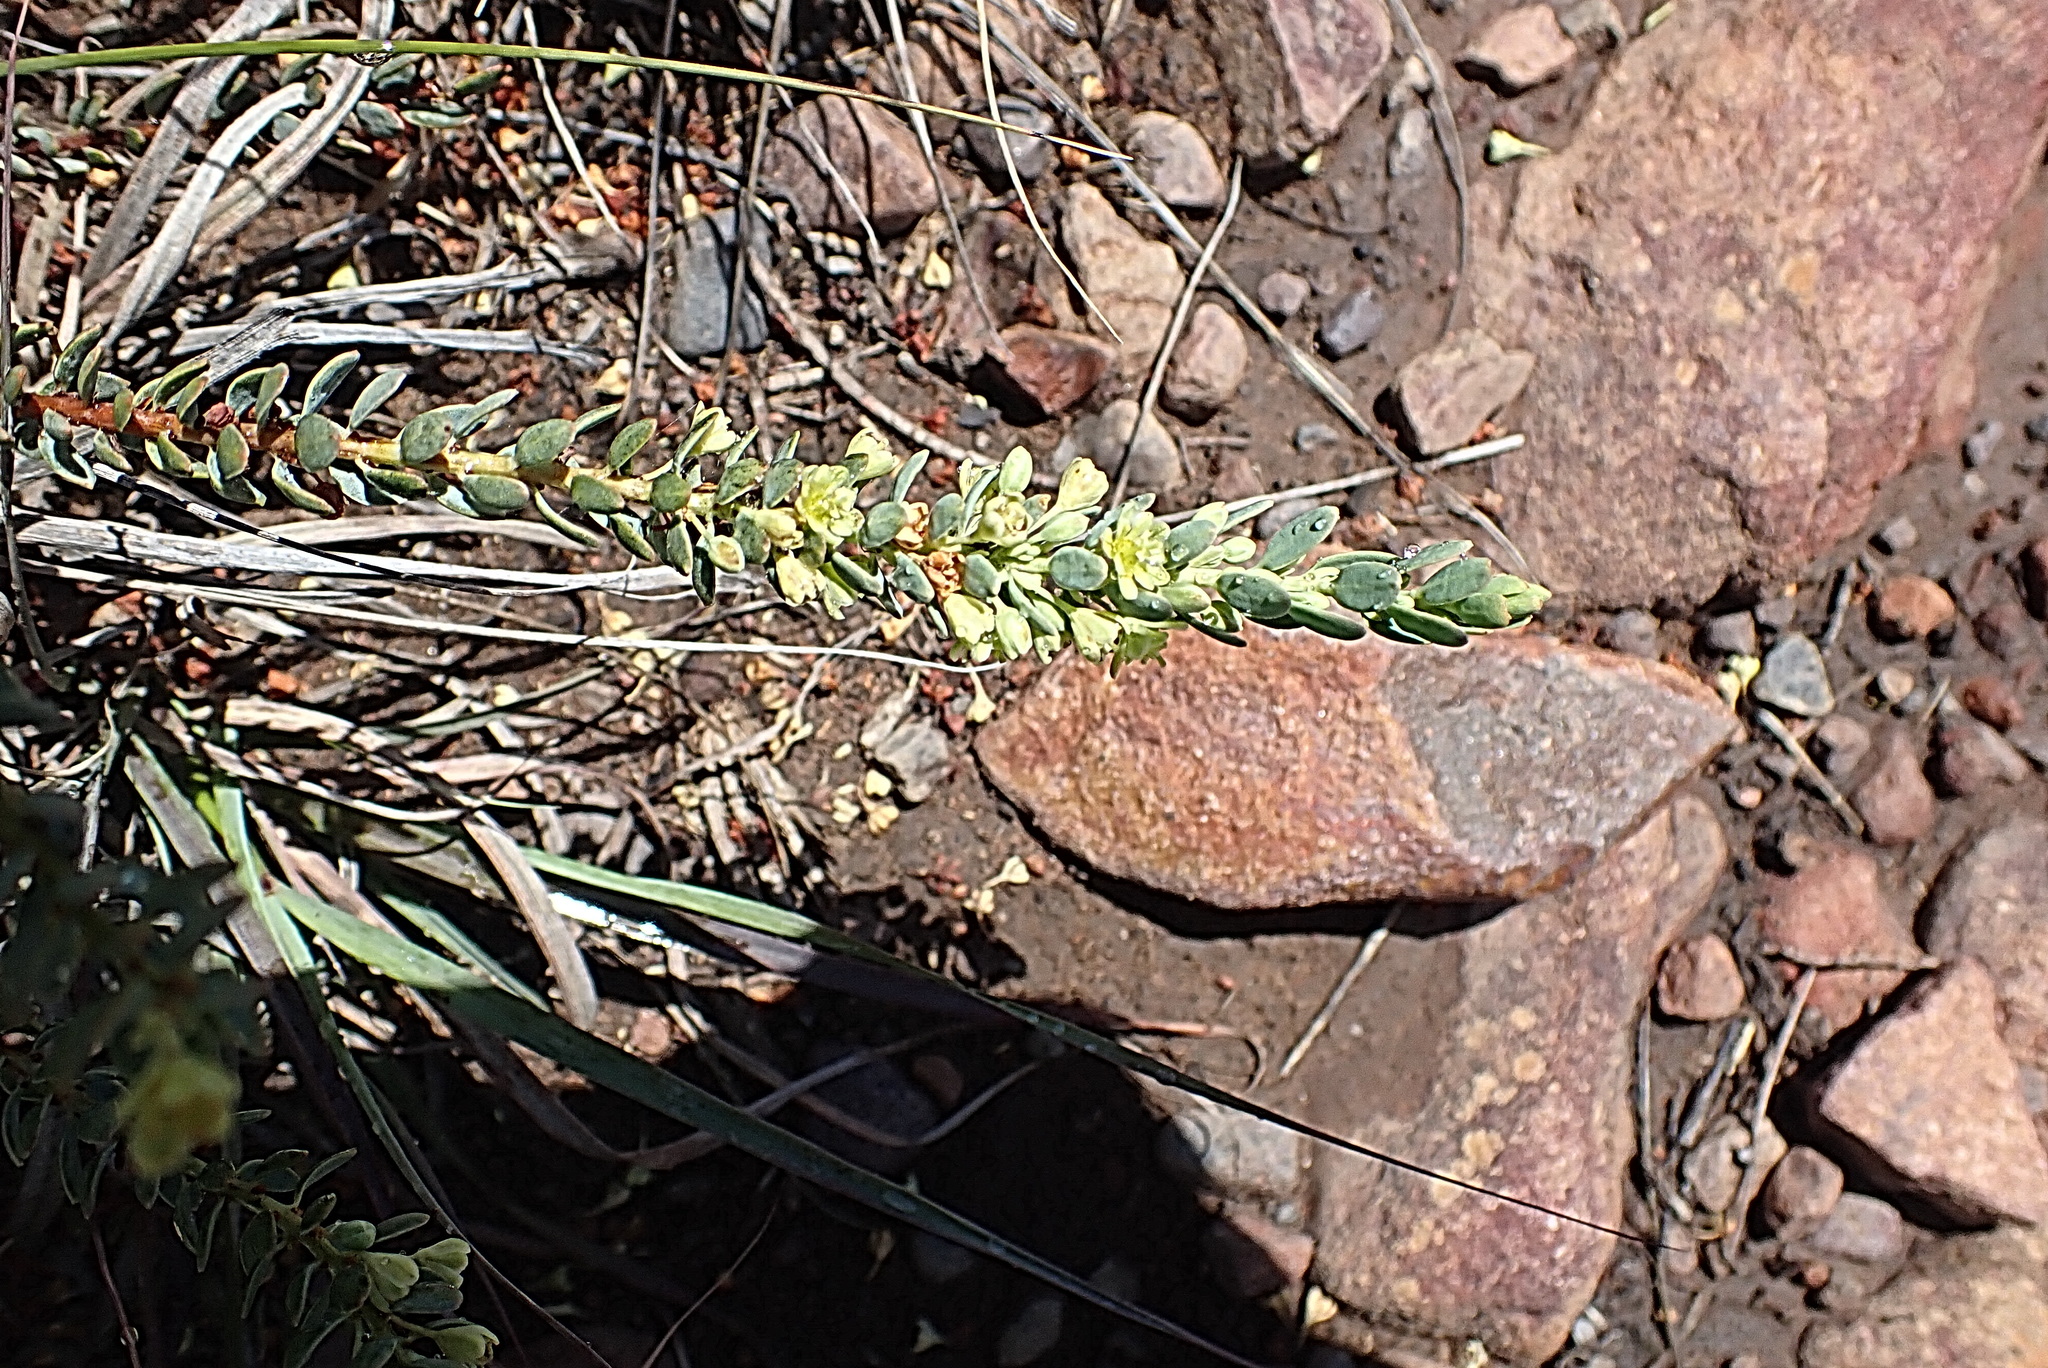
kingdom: Plantae
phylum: Tracheophyta
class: Magnoliopsida
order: Malpighiales
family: Peraceae
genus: Clutia
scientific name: Clutia laxa
